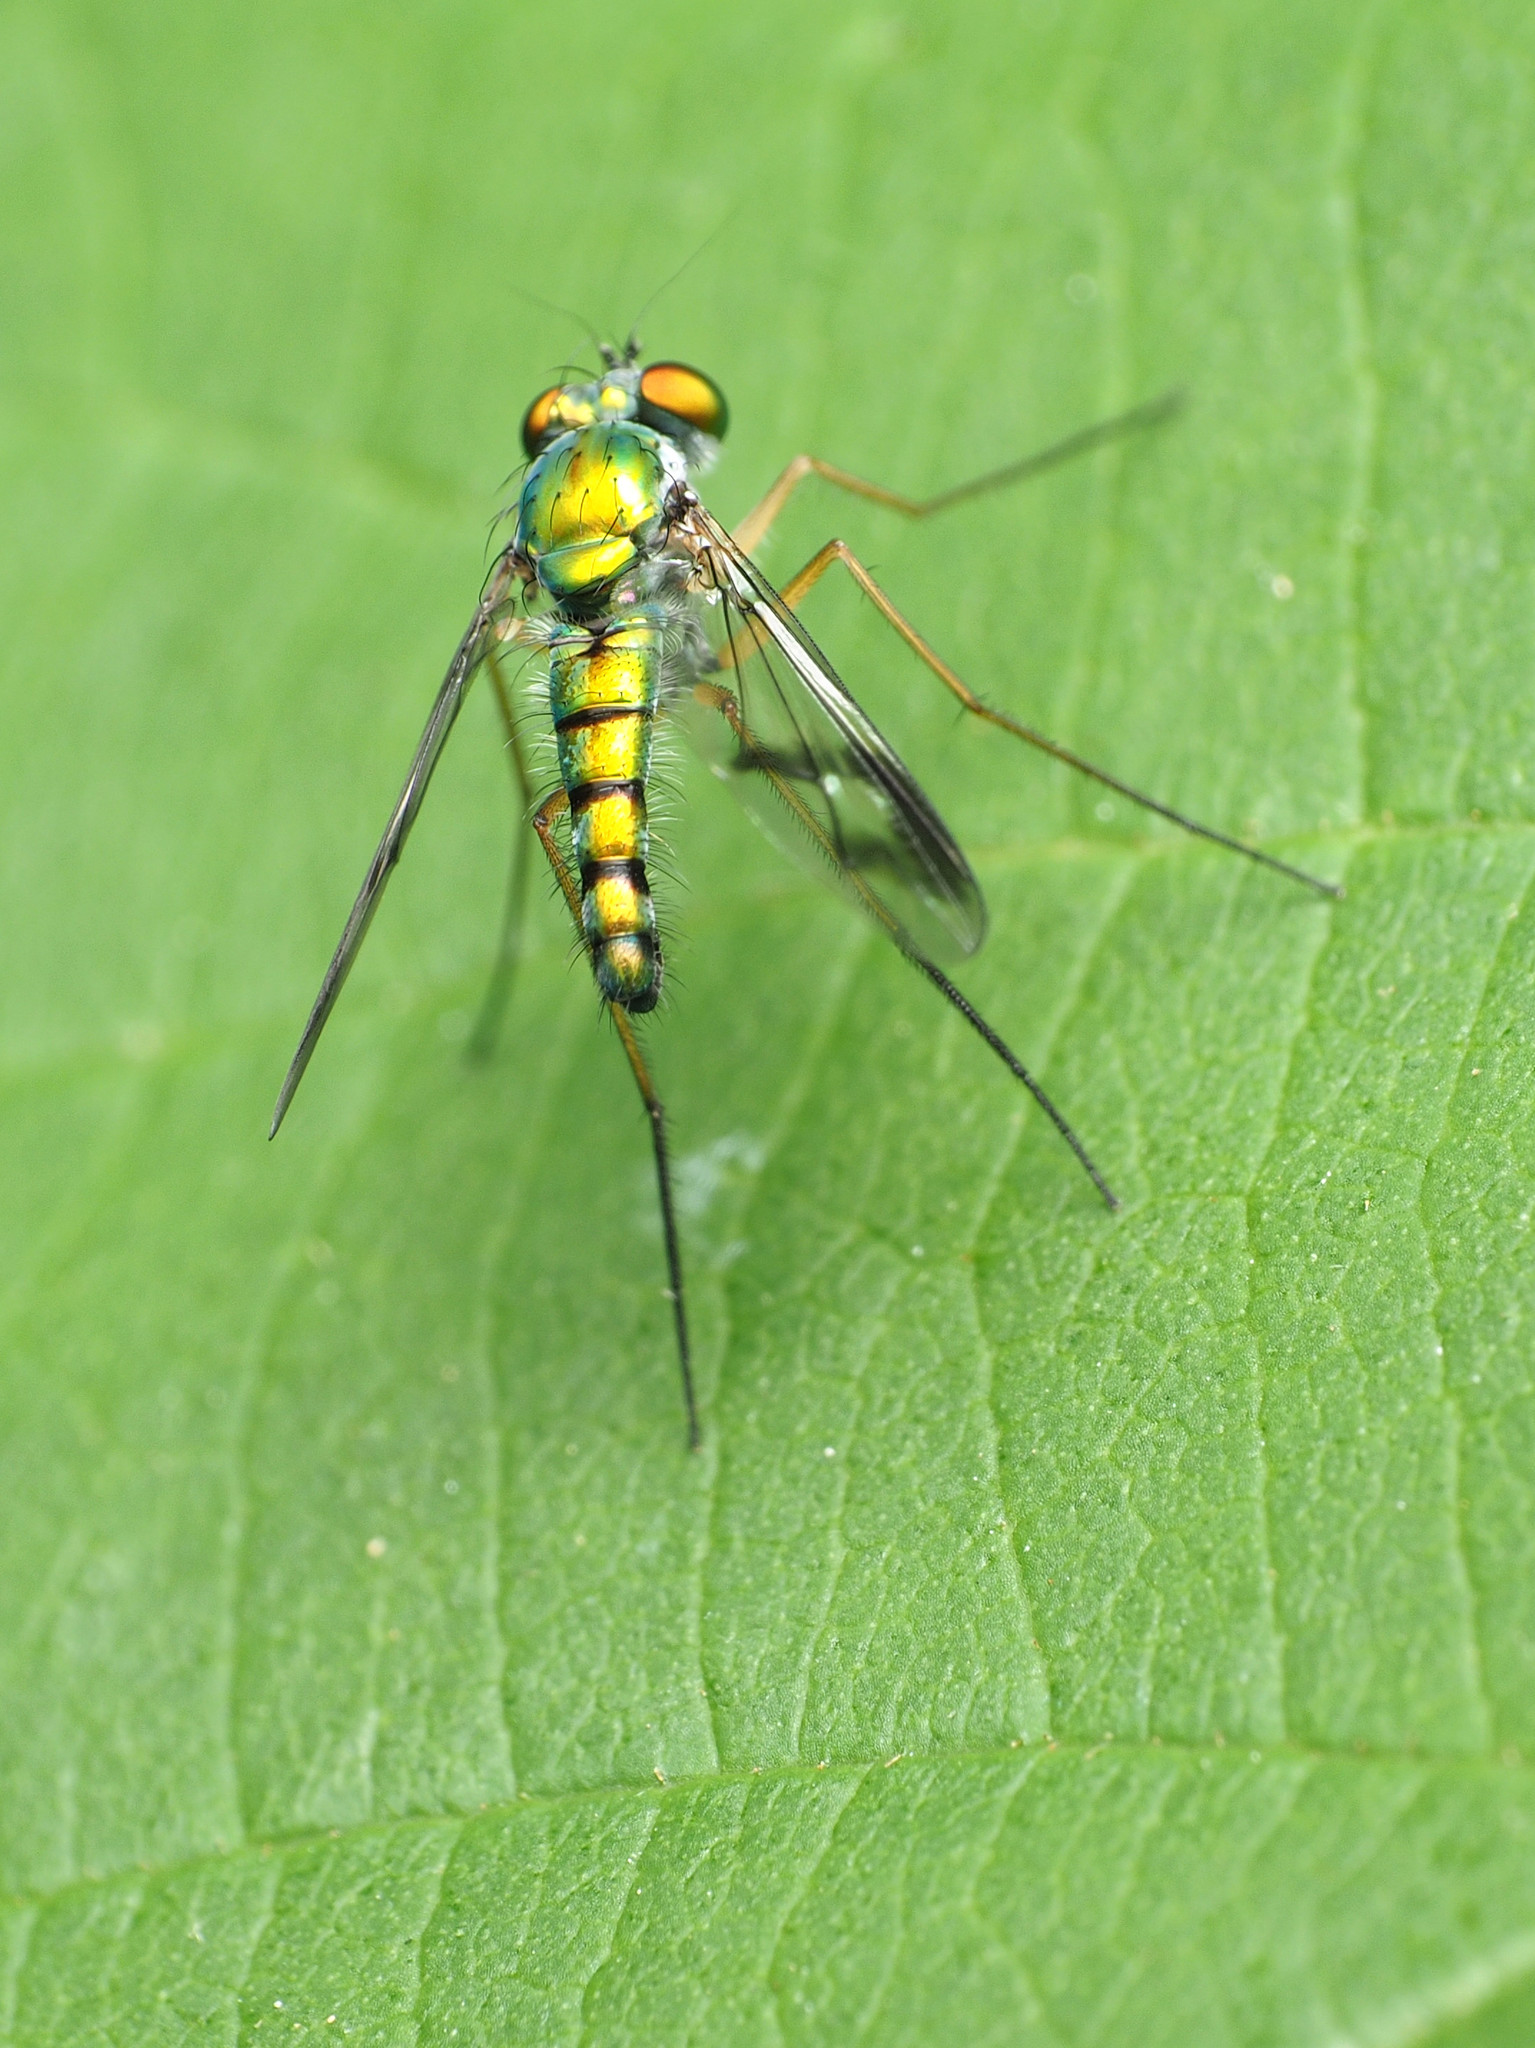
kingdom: Animalia
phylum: Arthropoda
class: Insecta
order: Diptera
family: Dolichopodidae
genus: Condylostylus
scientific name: Condylostylus brimleyi
